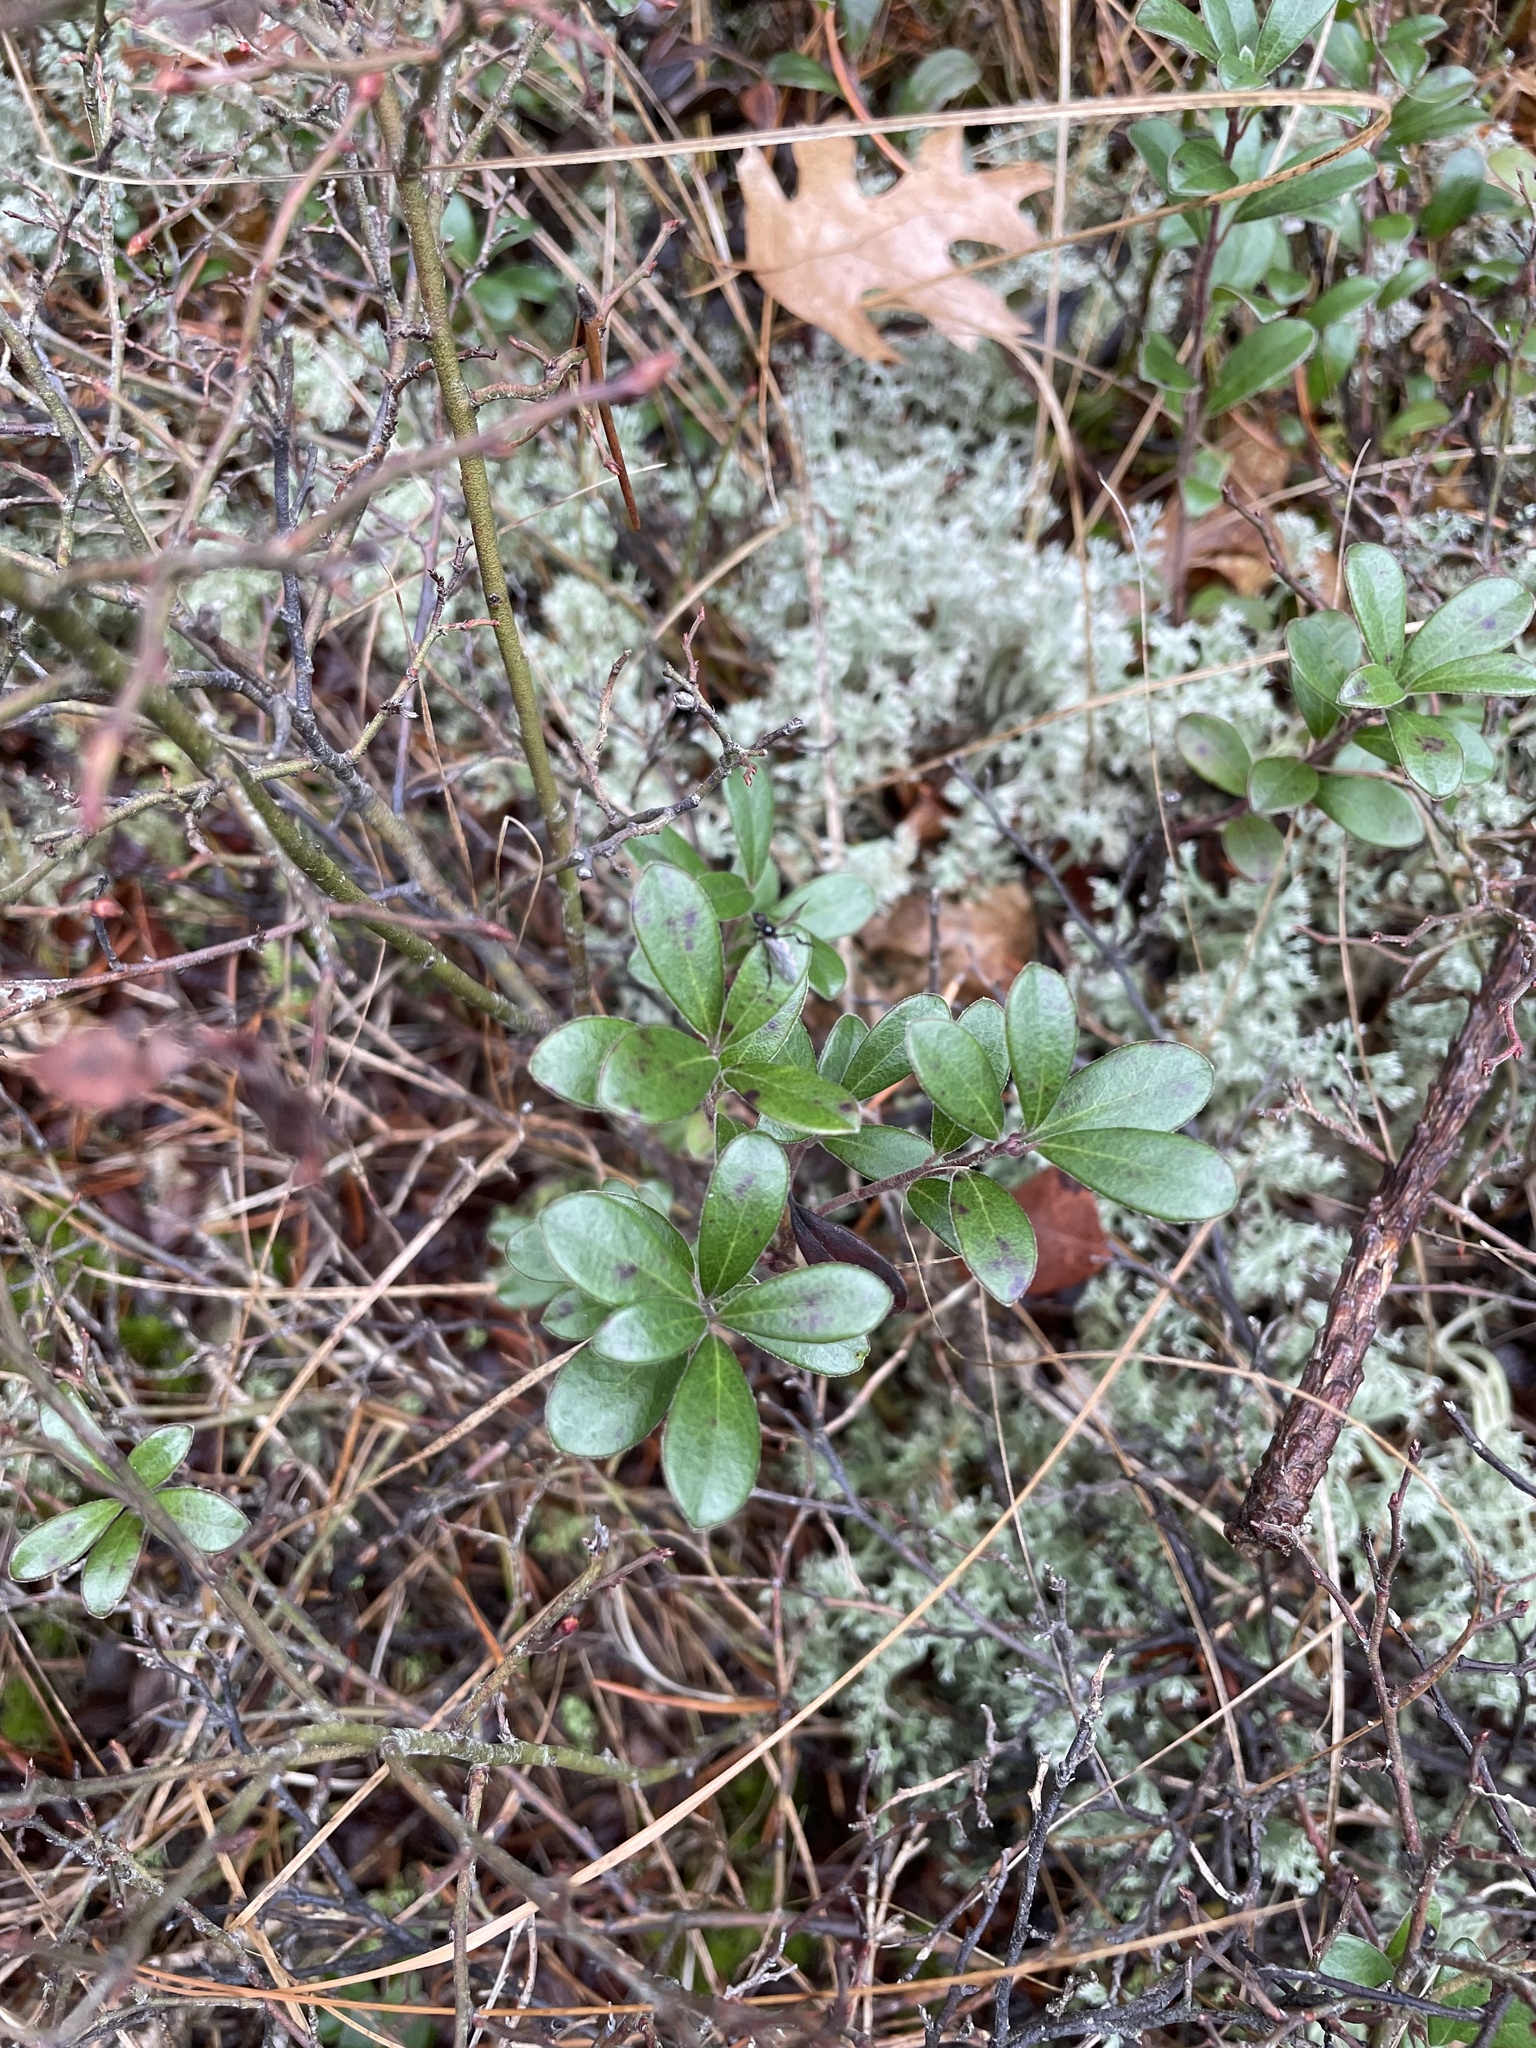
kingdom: Plantae
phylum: Tracheophyta
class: Magnoliopsida
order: Ericales
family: Ericaceae
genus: Arctostaphylos
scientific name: Arctostaphylos uva-ursi
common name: Bearberry
